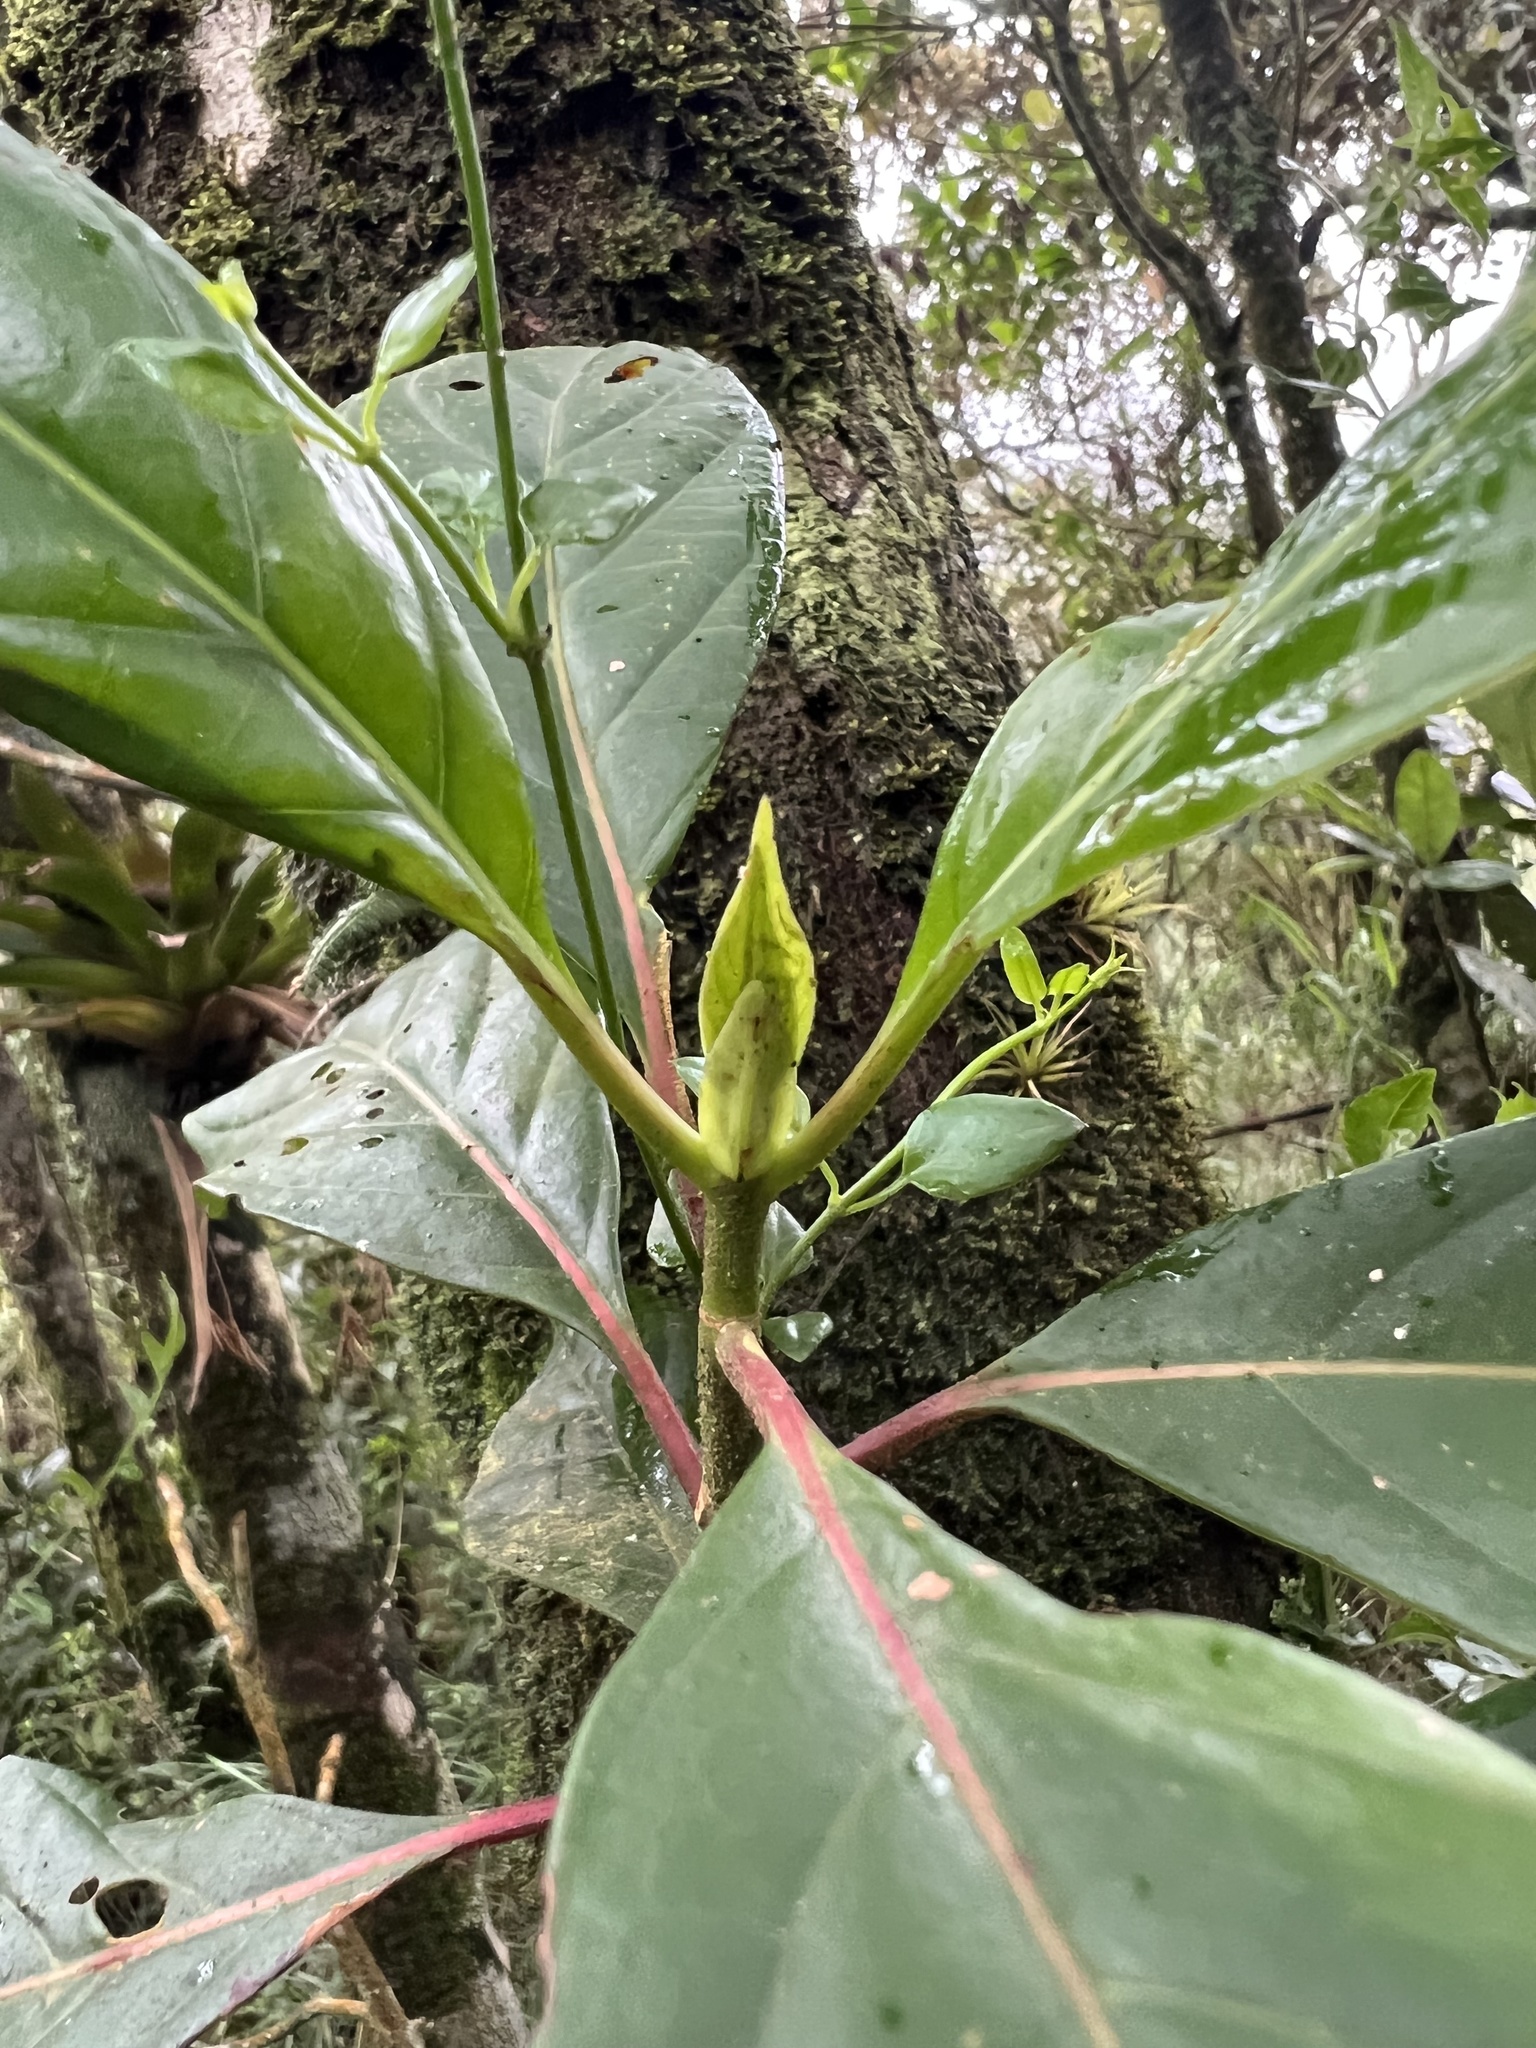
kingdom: Plantae
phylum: Tracheophyta
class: Magnoliopsida
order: Gentianales
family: Rubiaceae
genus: Cinchona
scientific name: Cinchona lancifolia
